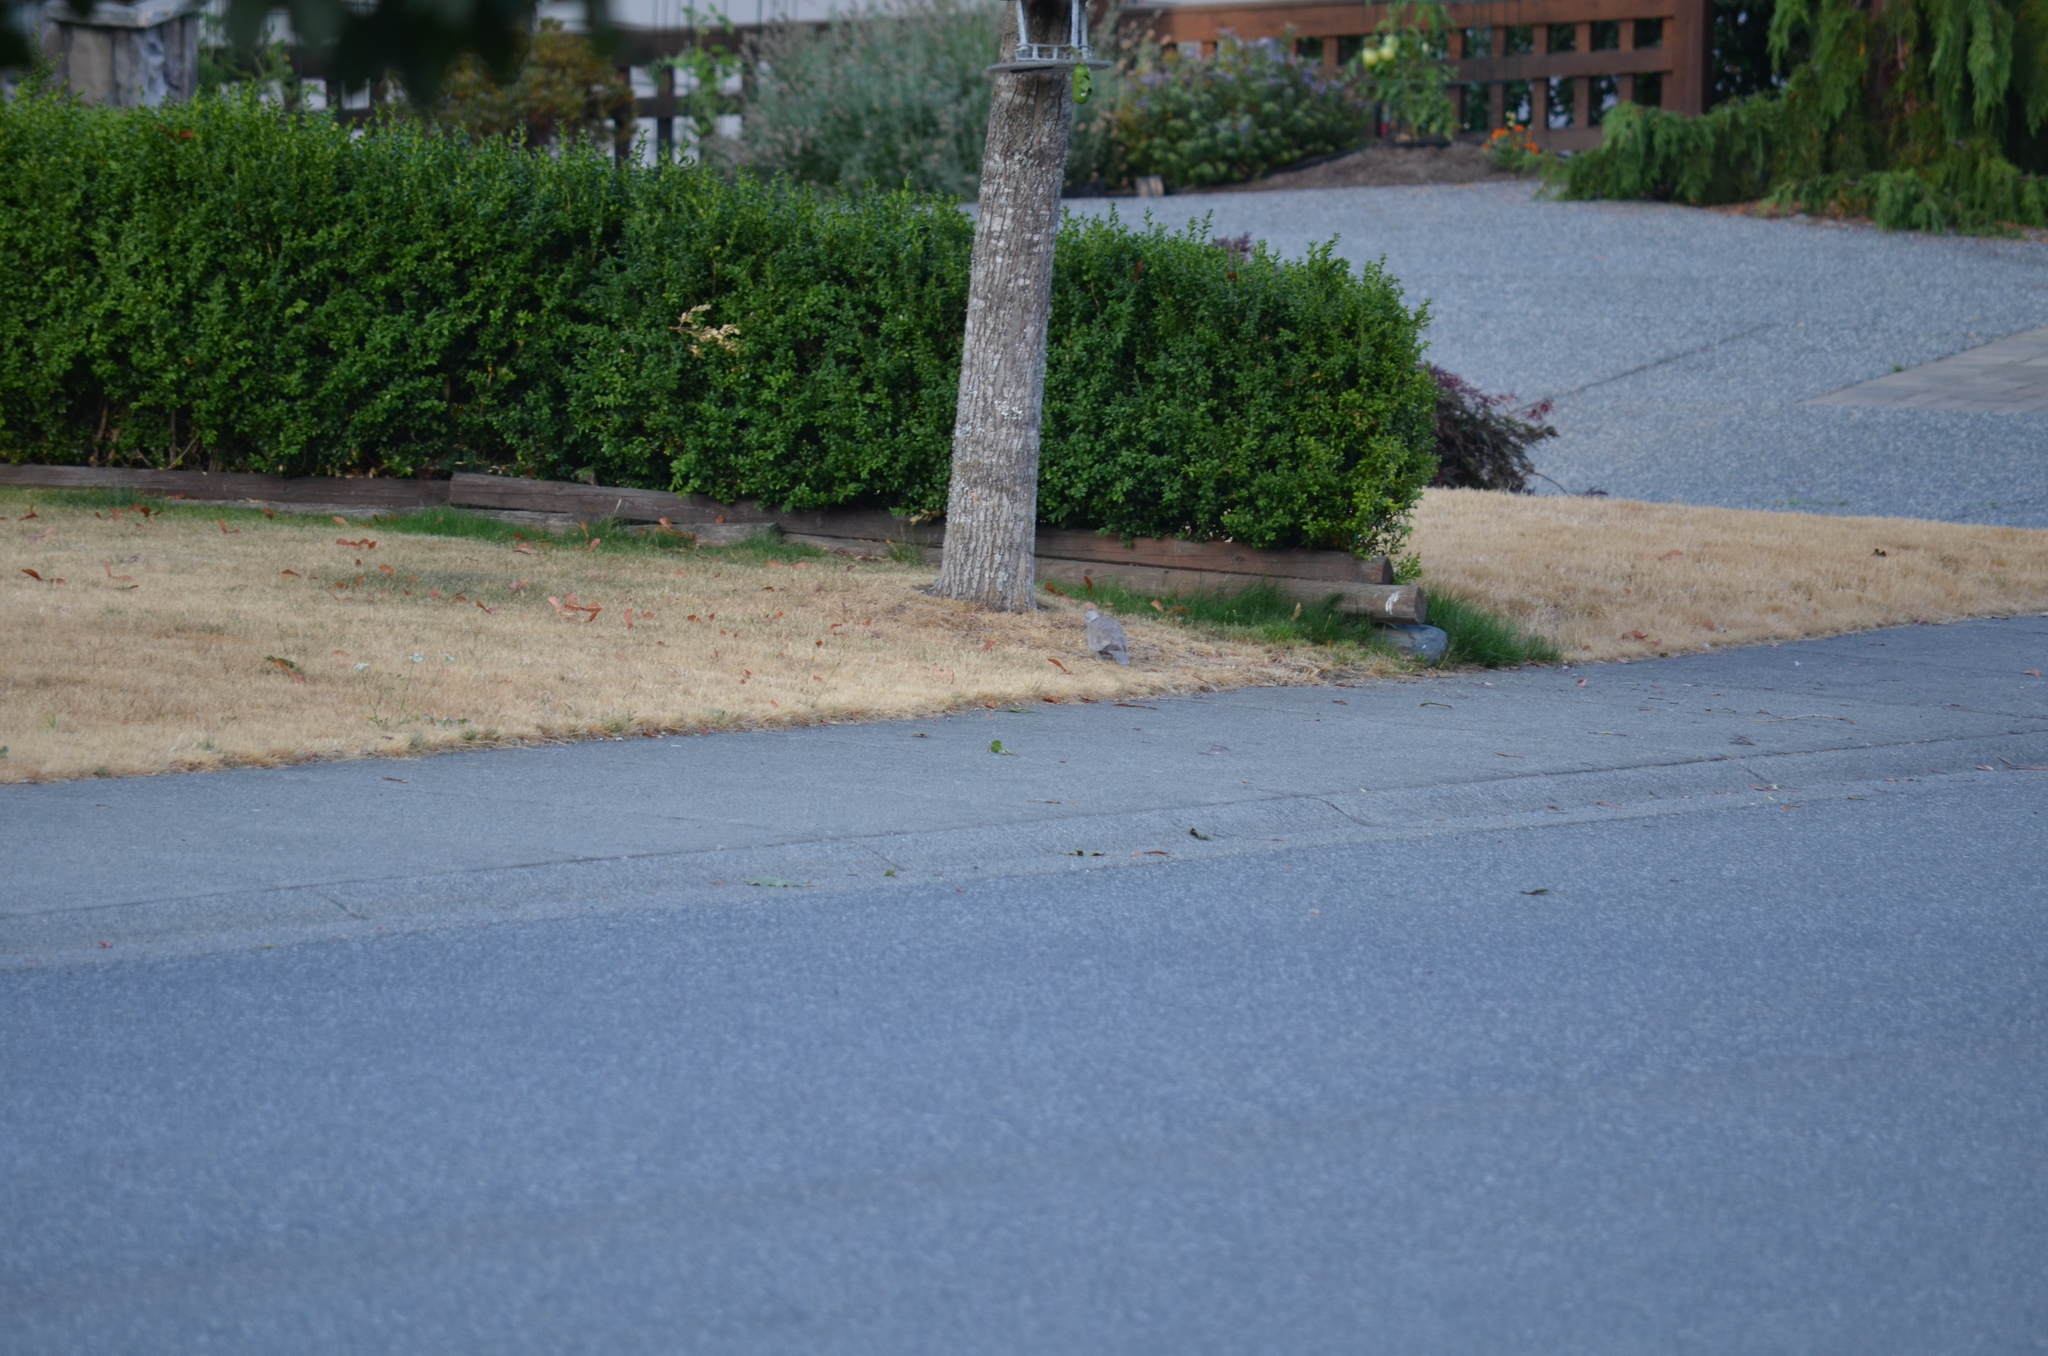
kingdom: Animalia
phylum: Chordata
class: Aves
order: Columbiformes
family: Columbidae
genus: Streptopelia
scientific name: Streptopelia decaocto
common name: Eurasian collared dove
